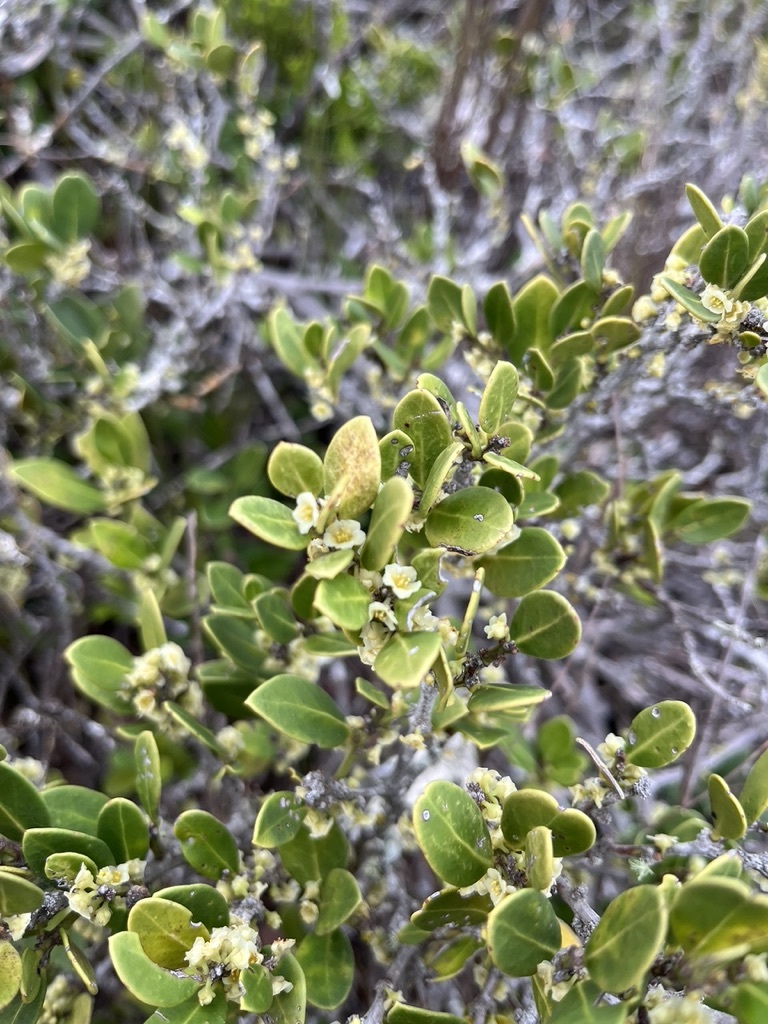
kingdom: Plantae
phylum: Tracheophyta
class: Magnoliopsida
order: Celastrales
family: Celastraceae
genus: Robsonodendron
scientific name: Robsonodendron maritimum
